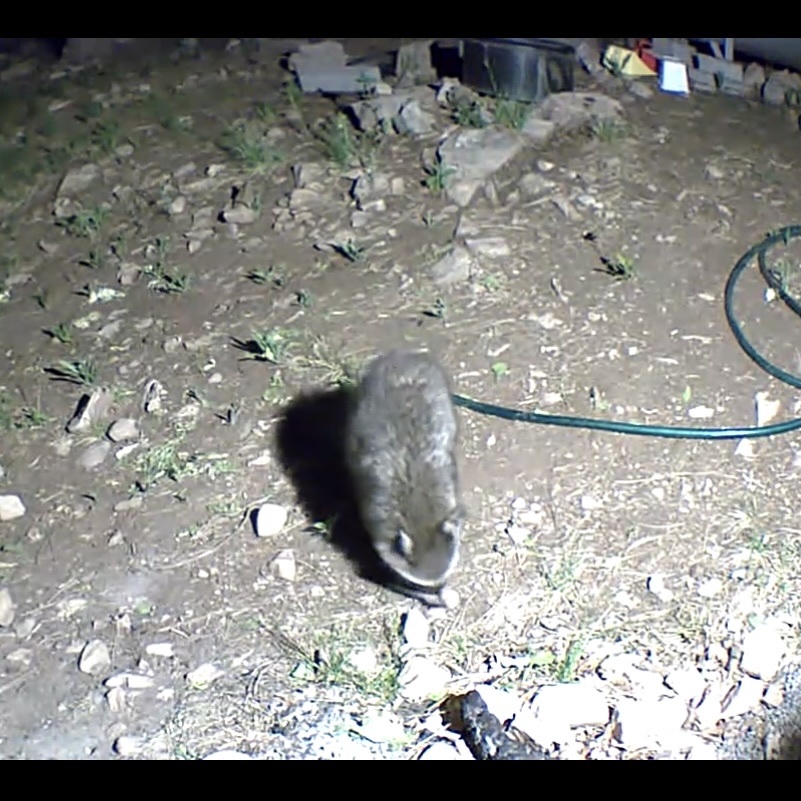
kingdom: Animalia
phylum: Chordata
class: Mammalia
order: Carnivora
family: Procyonidae
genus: Procyon
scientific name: Procyon lotor
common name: Raccoon
